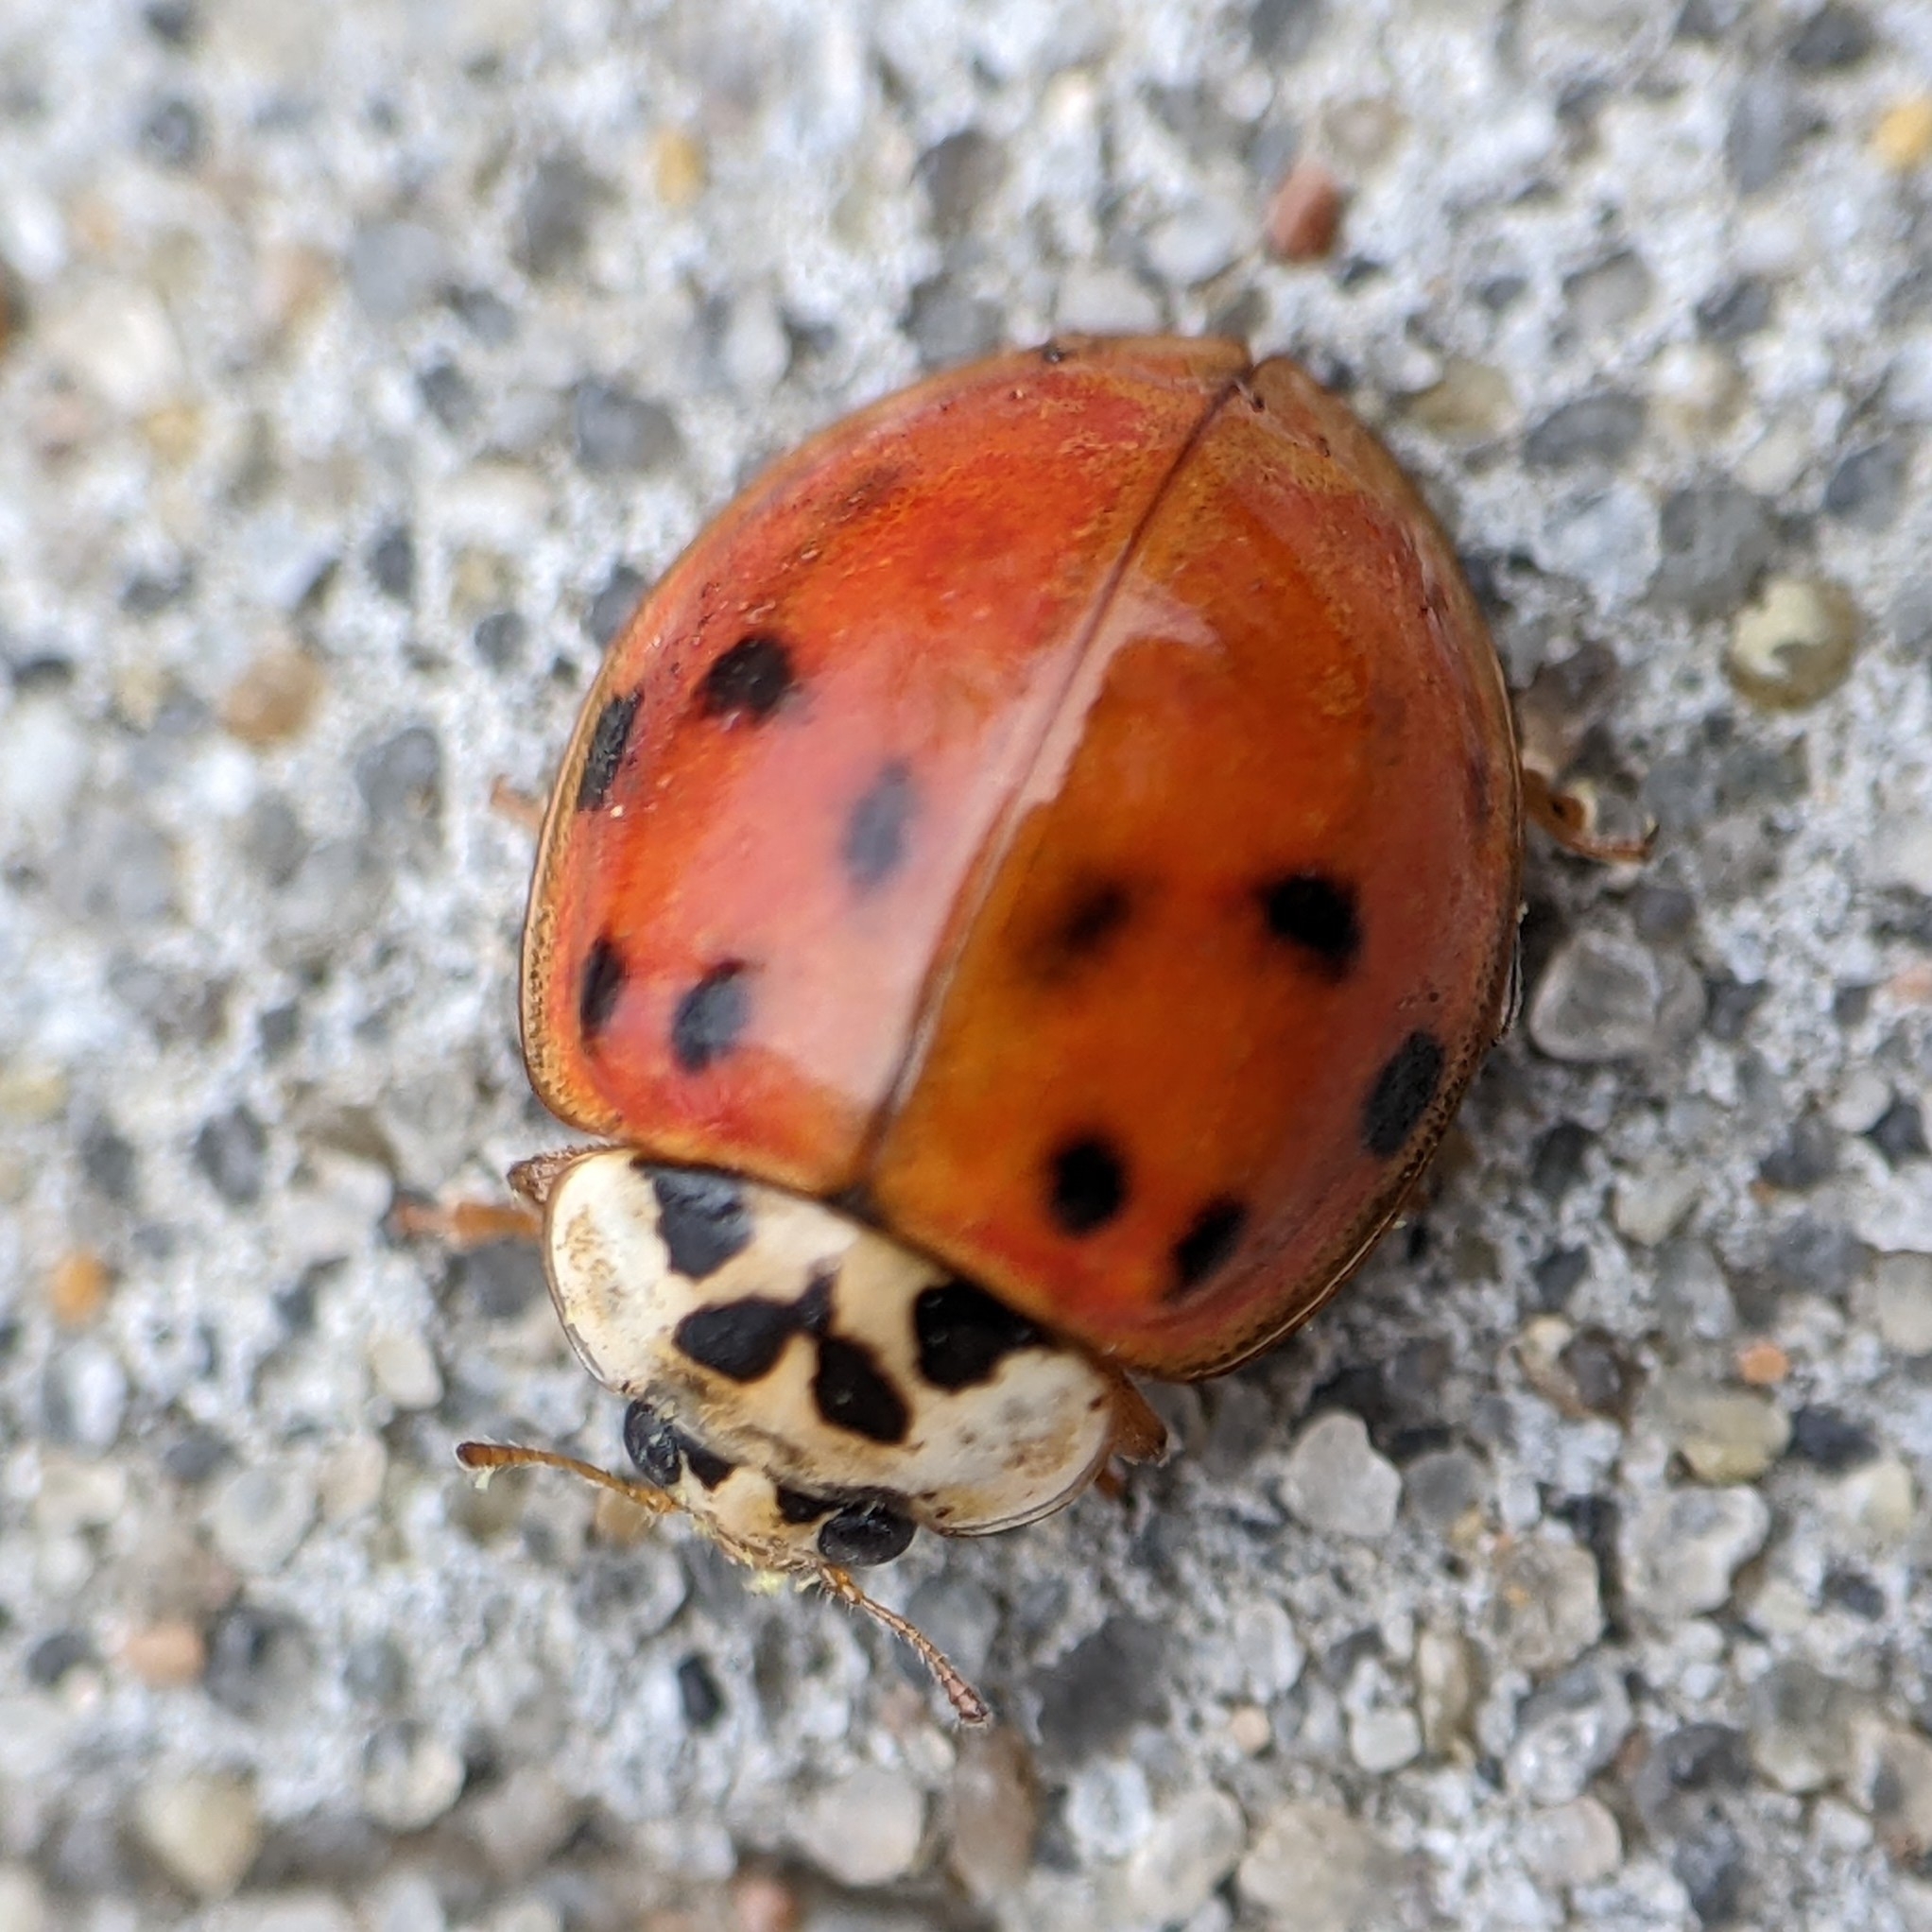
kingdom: Animalia
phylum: Arthropoda
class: Insecta
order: Coleoptera
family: Coccinellidae
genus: Harmonia
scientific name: Harmonia axyridis
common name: Harlequin ladybird
